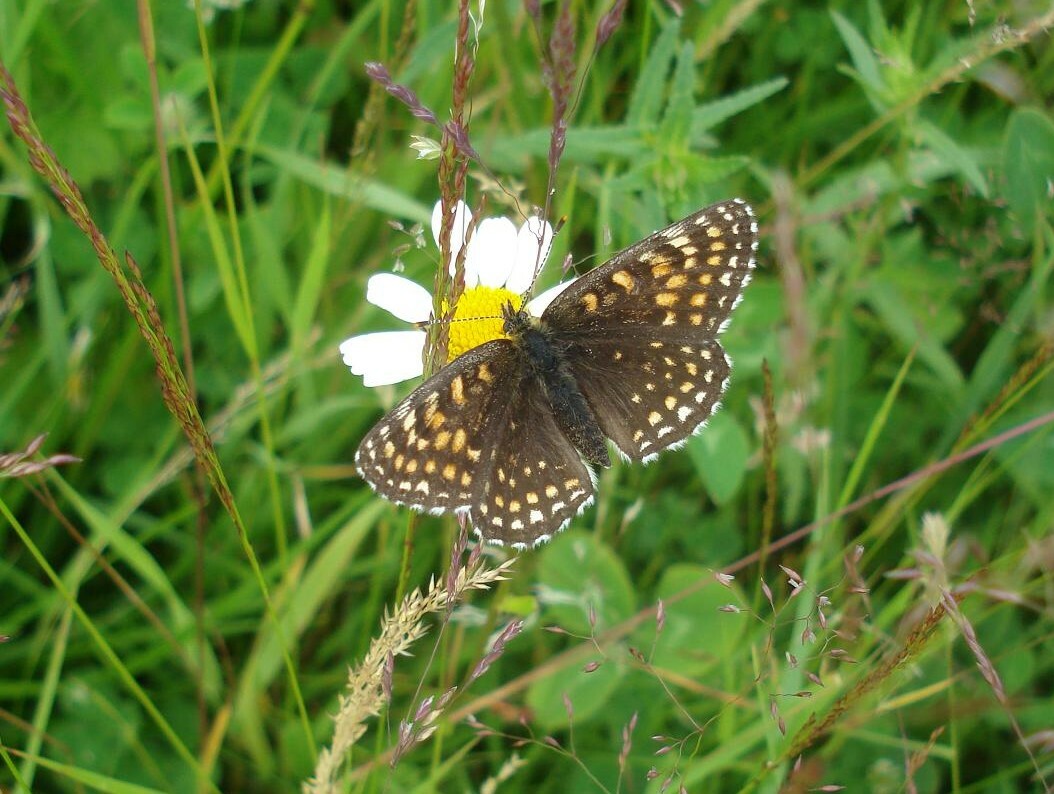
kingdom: Animalia
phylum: Arthropoda
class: Insecta
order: Lepidoptera
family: Nymphalidae
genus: Melitaea
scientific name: Melitaea diamina
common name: False heath fritillary
